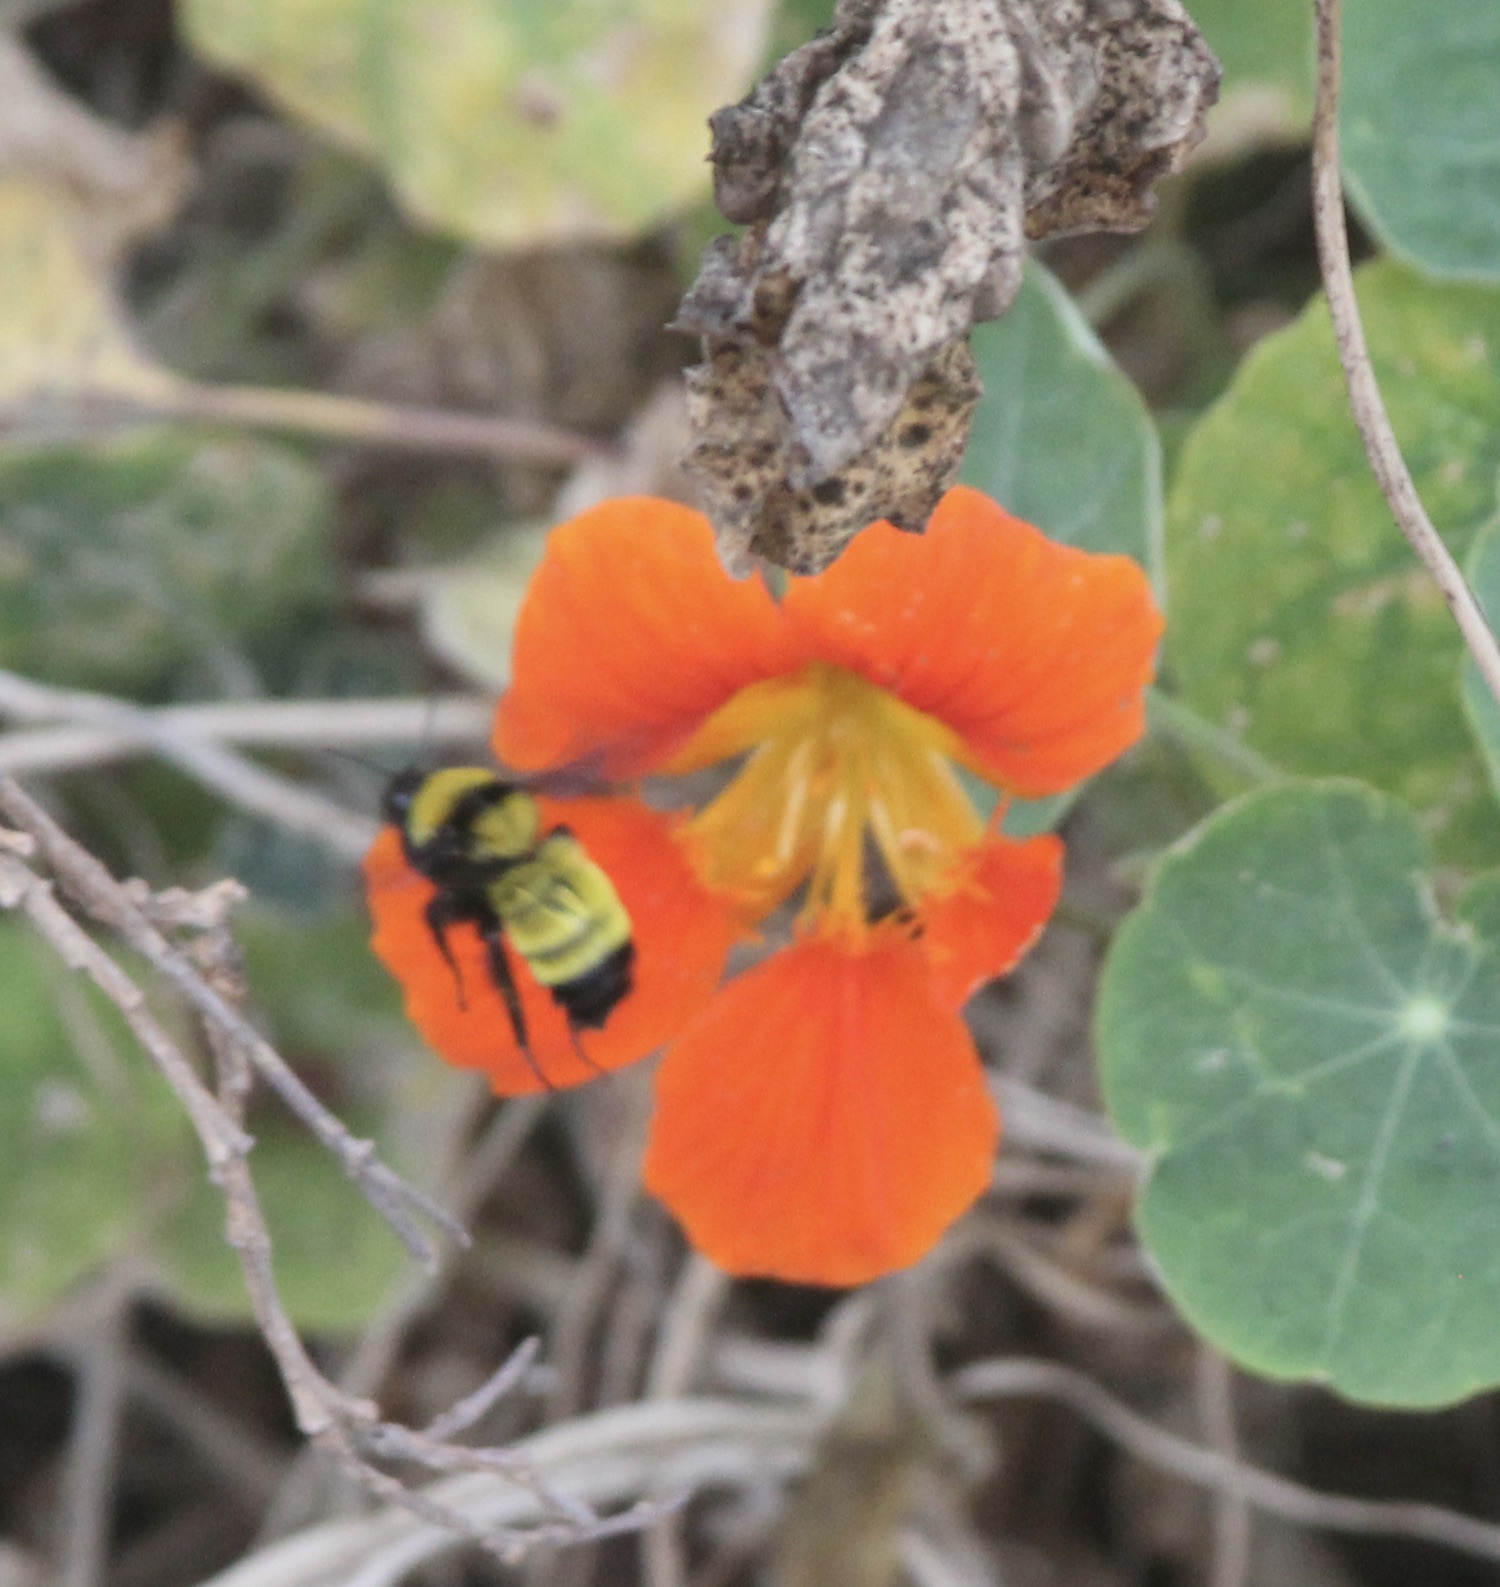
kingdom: Animalia
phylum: Arthropoda
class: Insecta
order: Hymenoptera
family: Apidae
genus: Bombus
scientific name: Bombus sonorus
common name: Sonoran bumble bee
